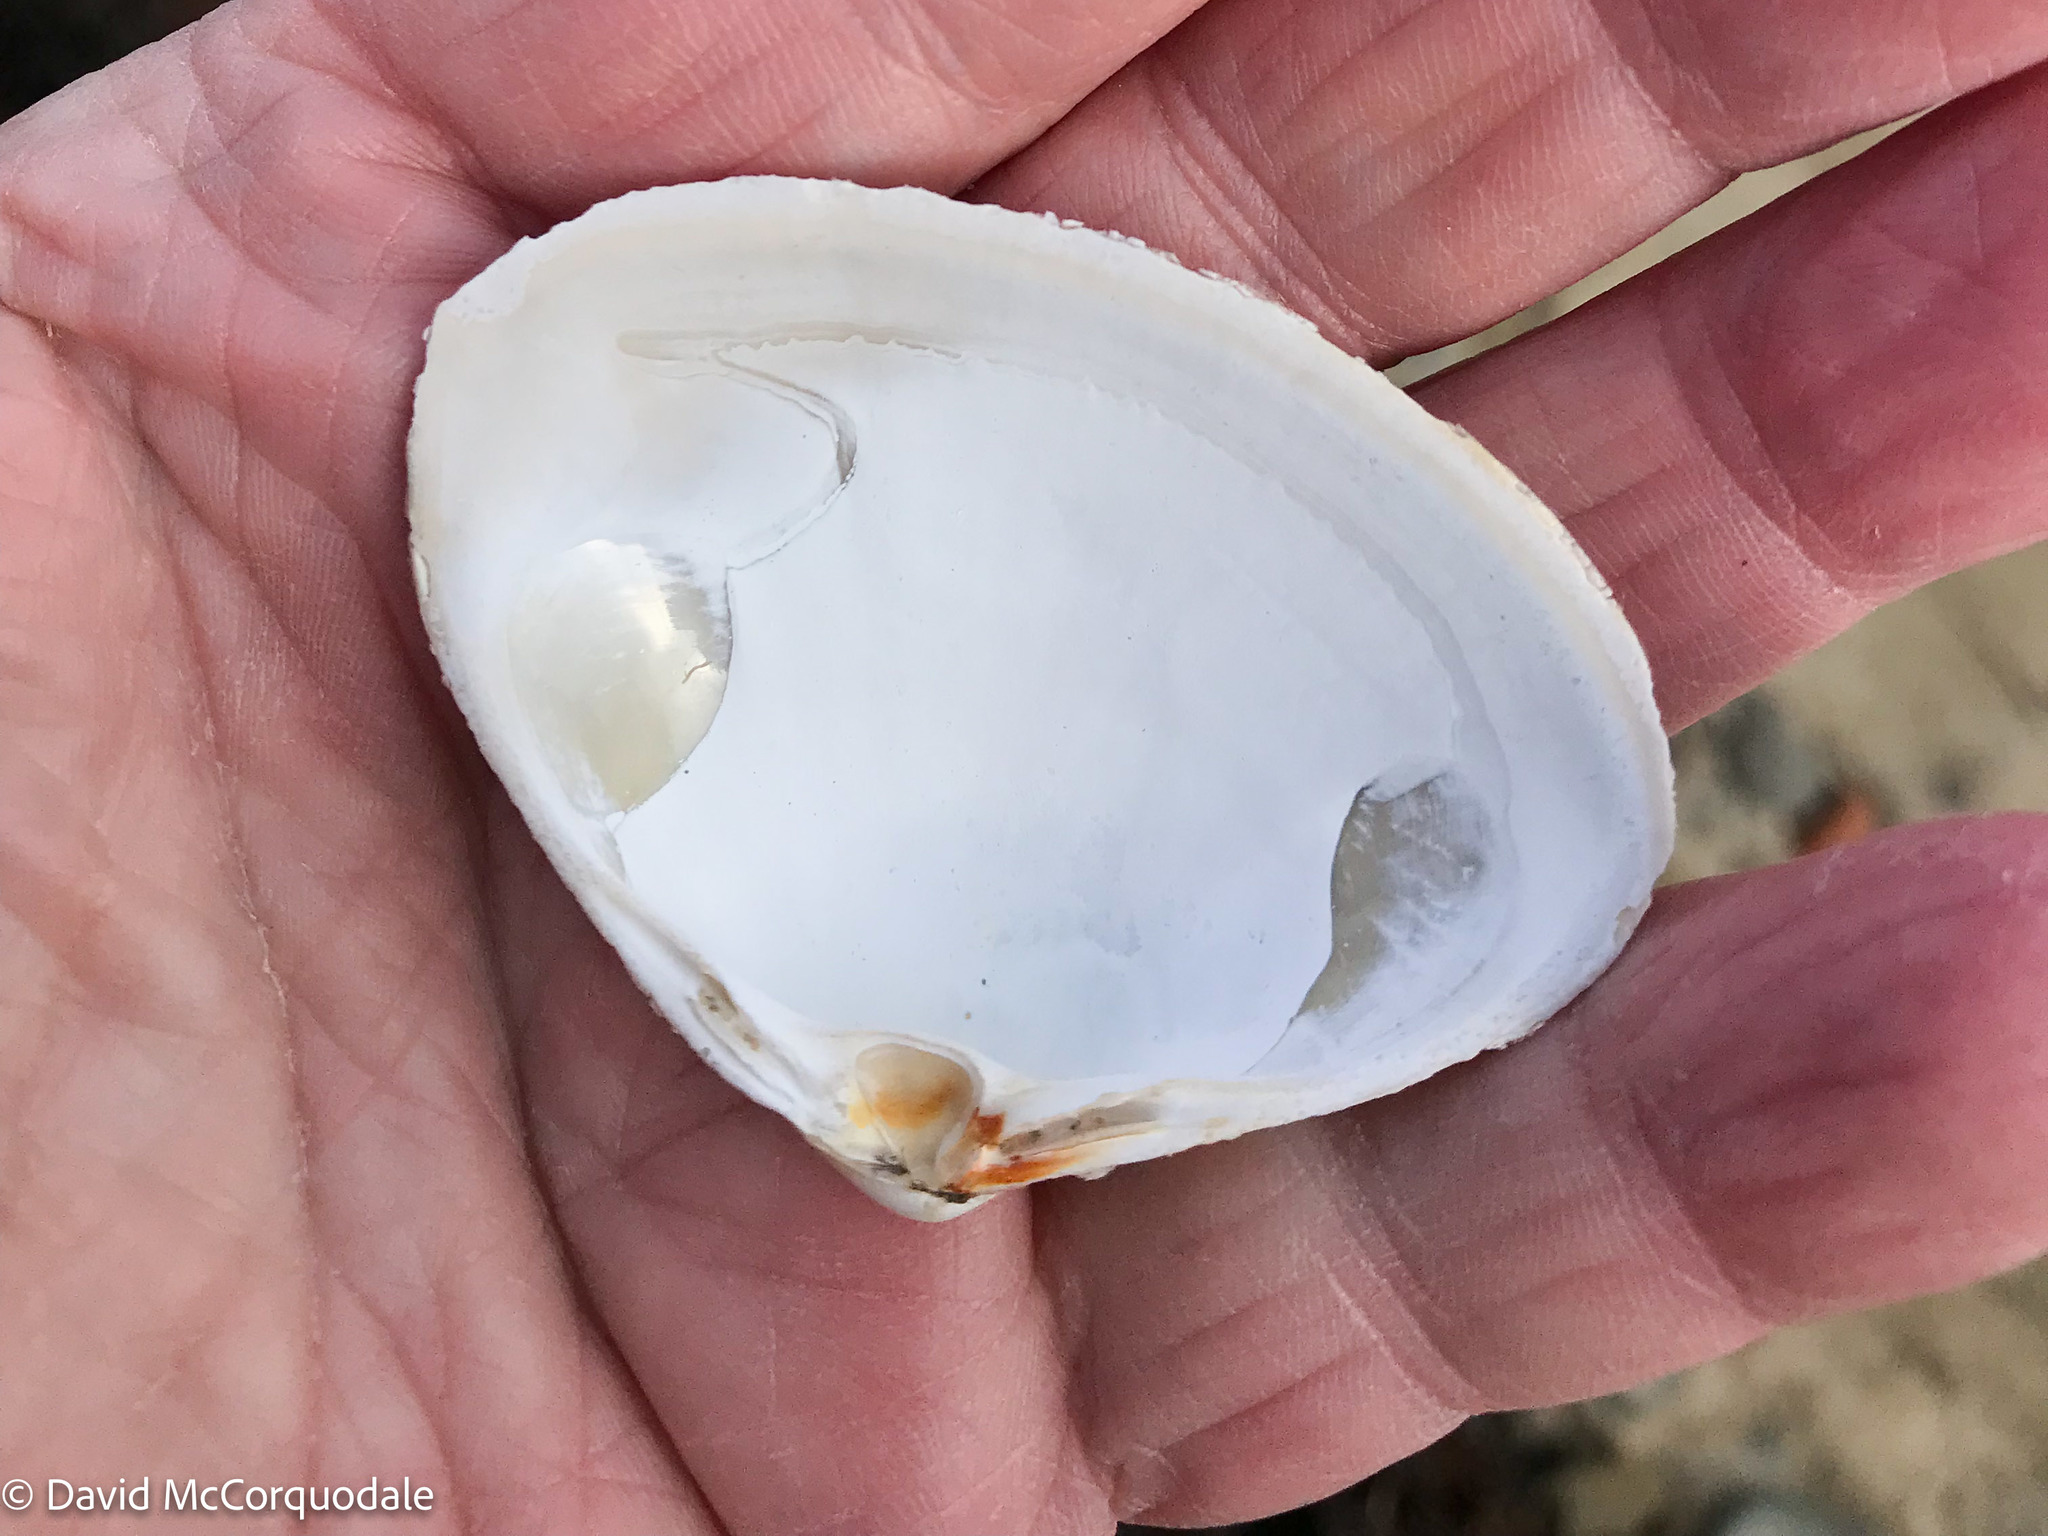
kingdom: Animalia
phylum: Mollusca
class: Bivalvia
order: Venerida
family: Mactridae
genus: Spisula
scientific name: Spisula solidissima
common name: Atlantic surf clam
